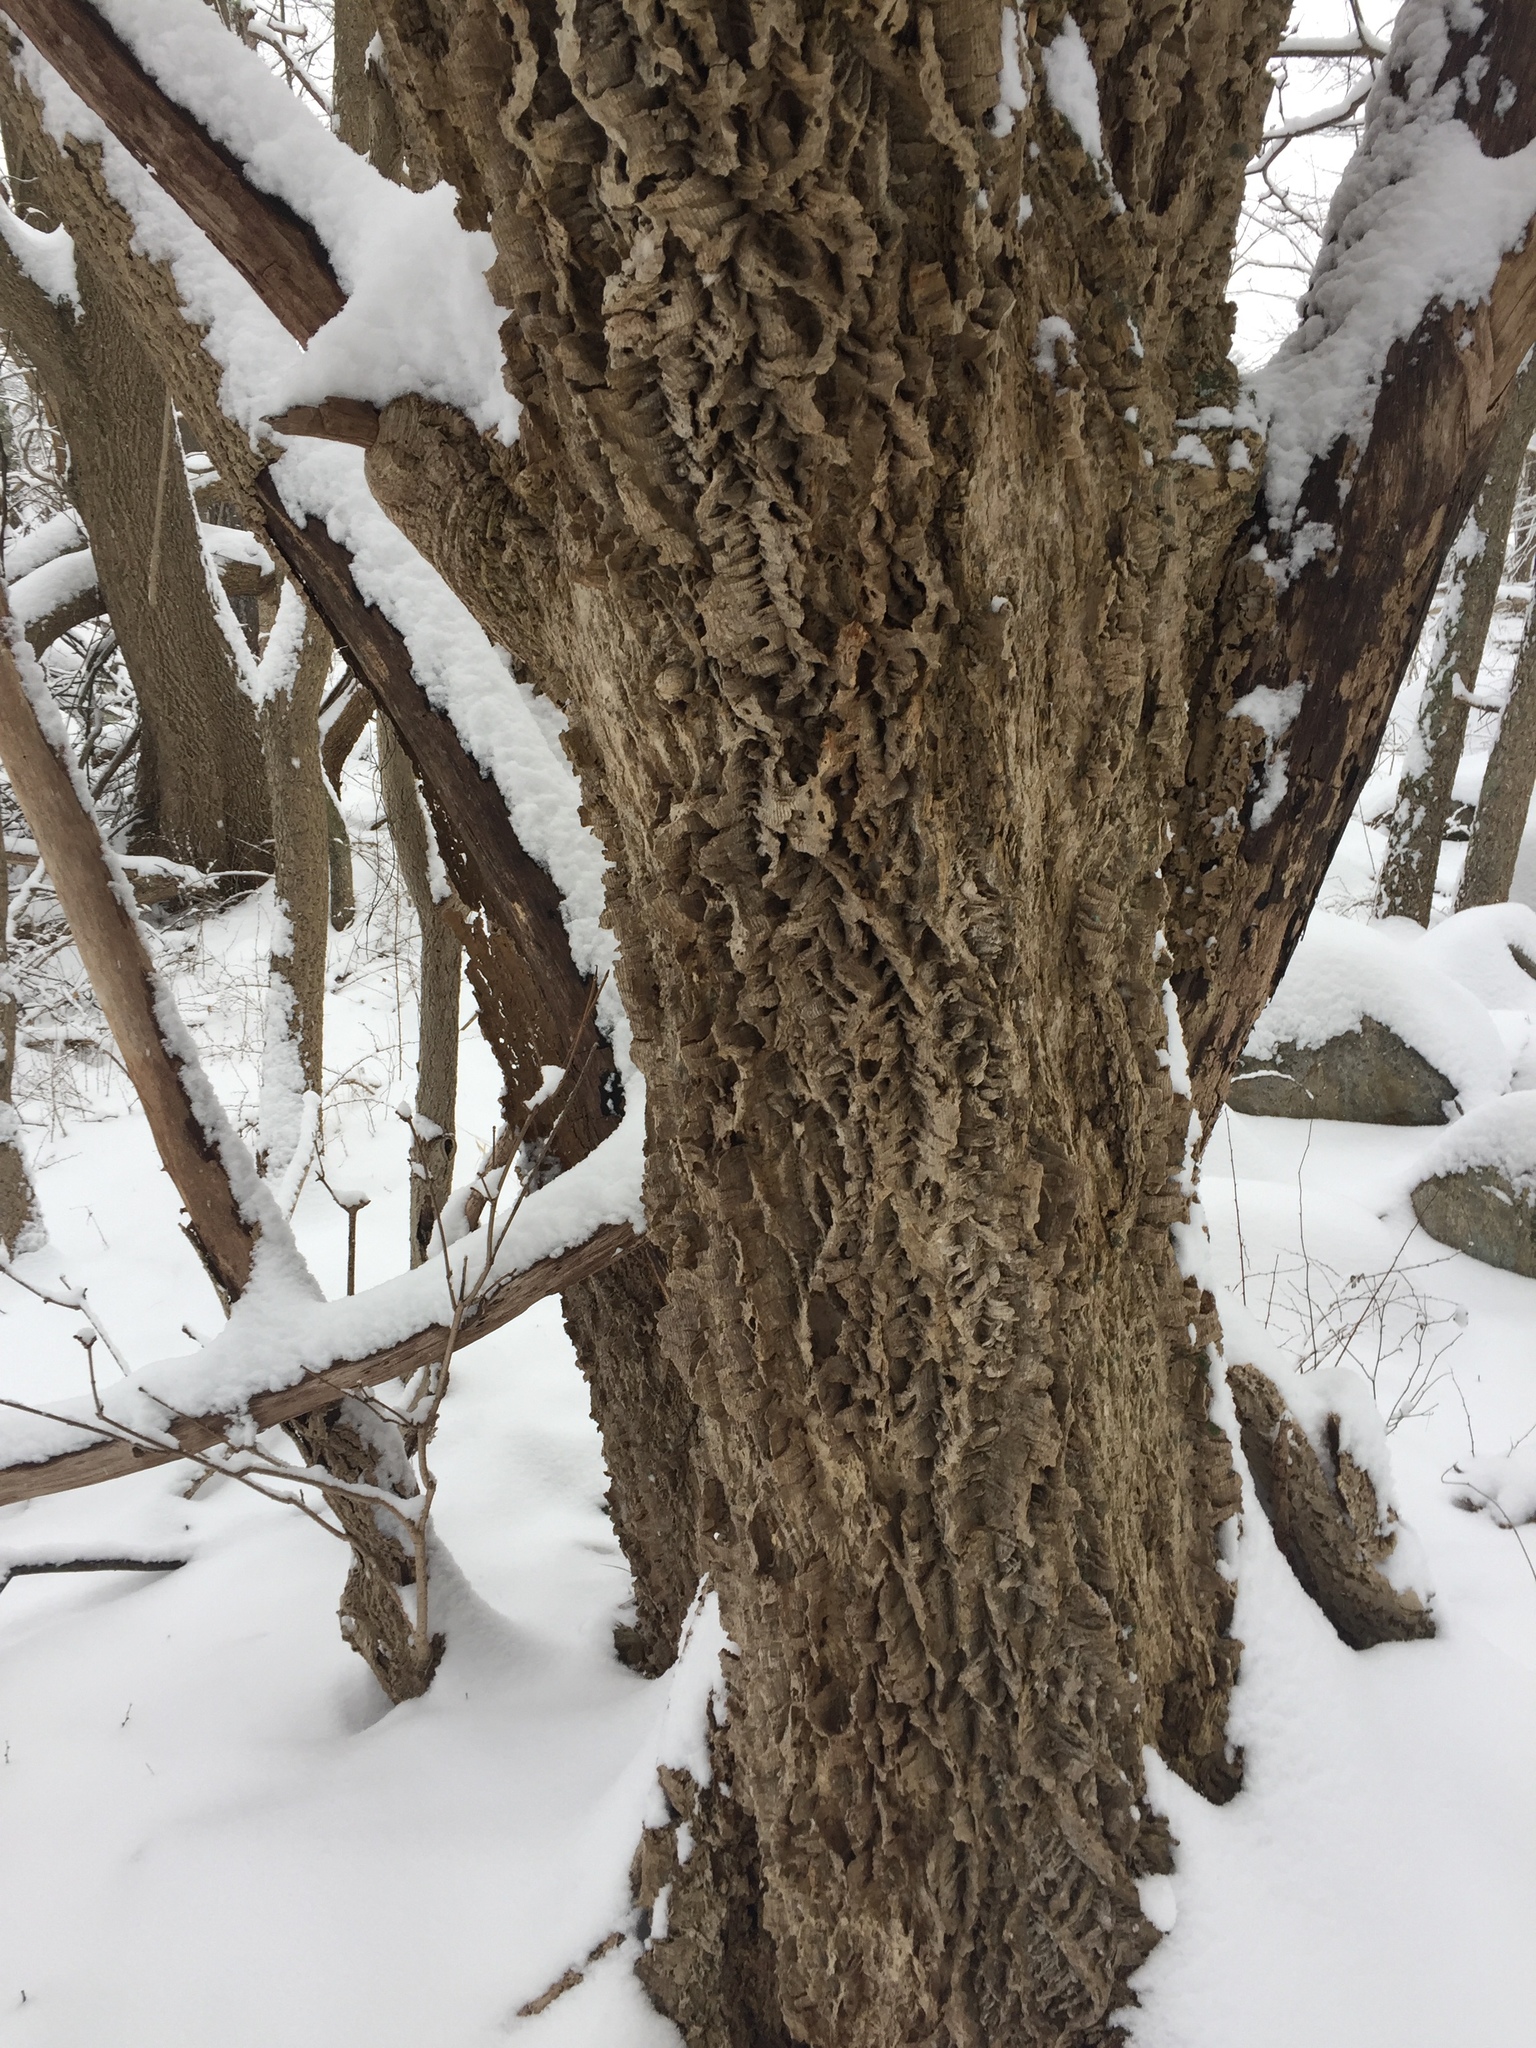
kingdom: Plantae
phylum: Tracheophyta
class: Magnoliopsida
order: Sapindales
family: Rutaceae
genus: Phellodendron
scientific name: Phellodendron amurense
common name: Amur corktree
